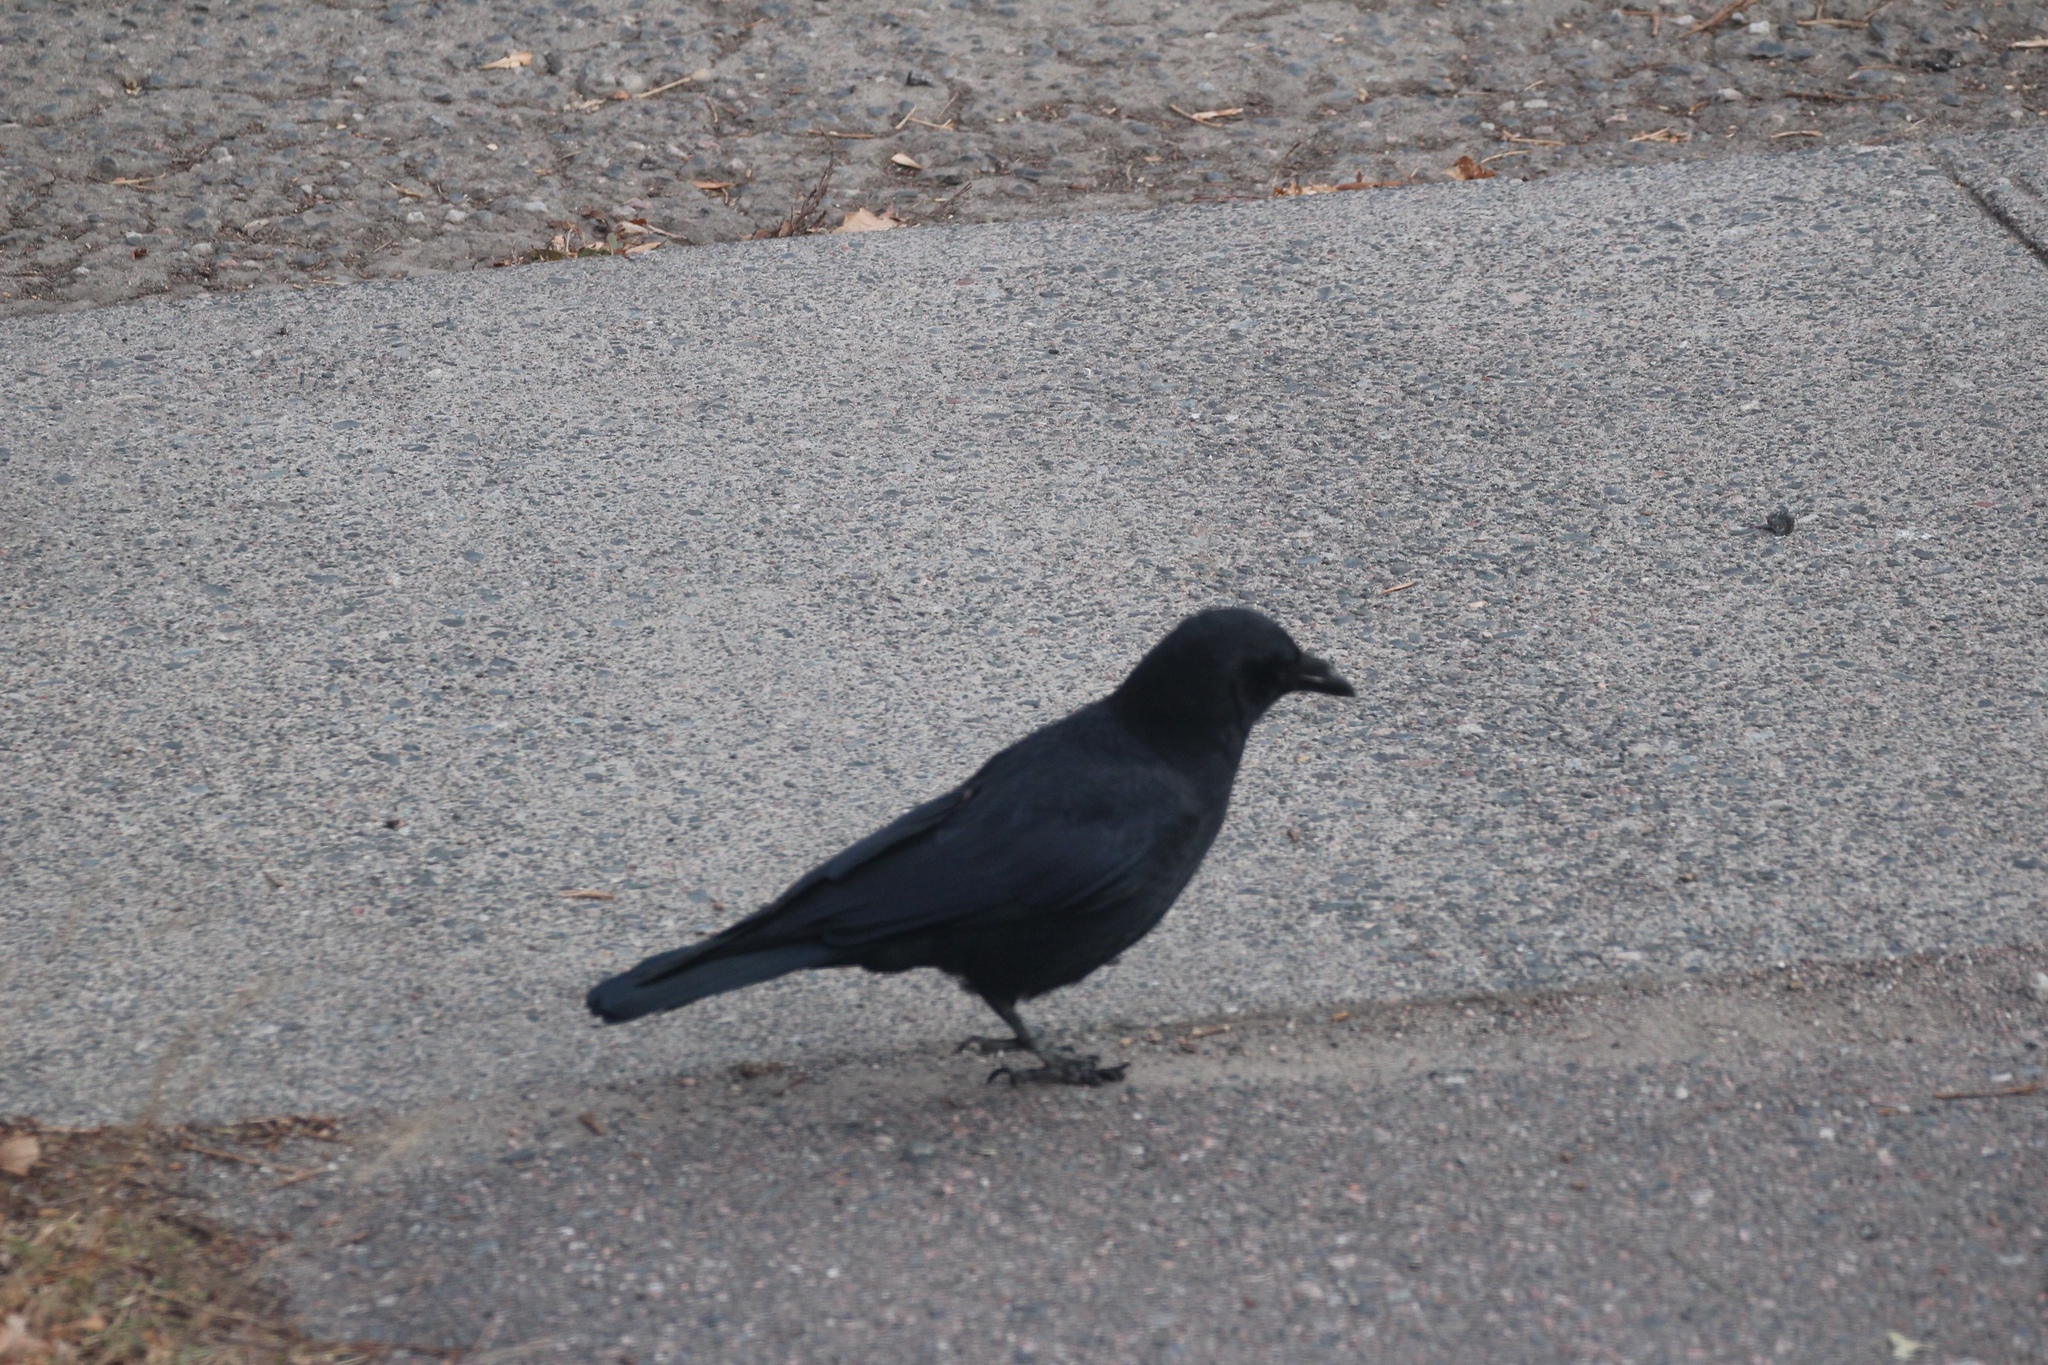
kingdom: Animalia
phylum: Chordata
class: Aves
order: Passeriformes
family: Corvidae
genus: Corvus
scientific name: Corvus brachyrhynchos
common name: American crow
